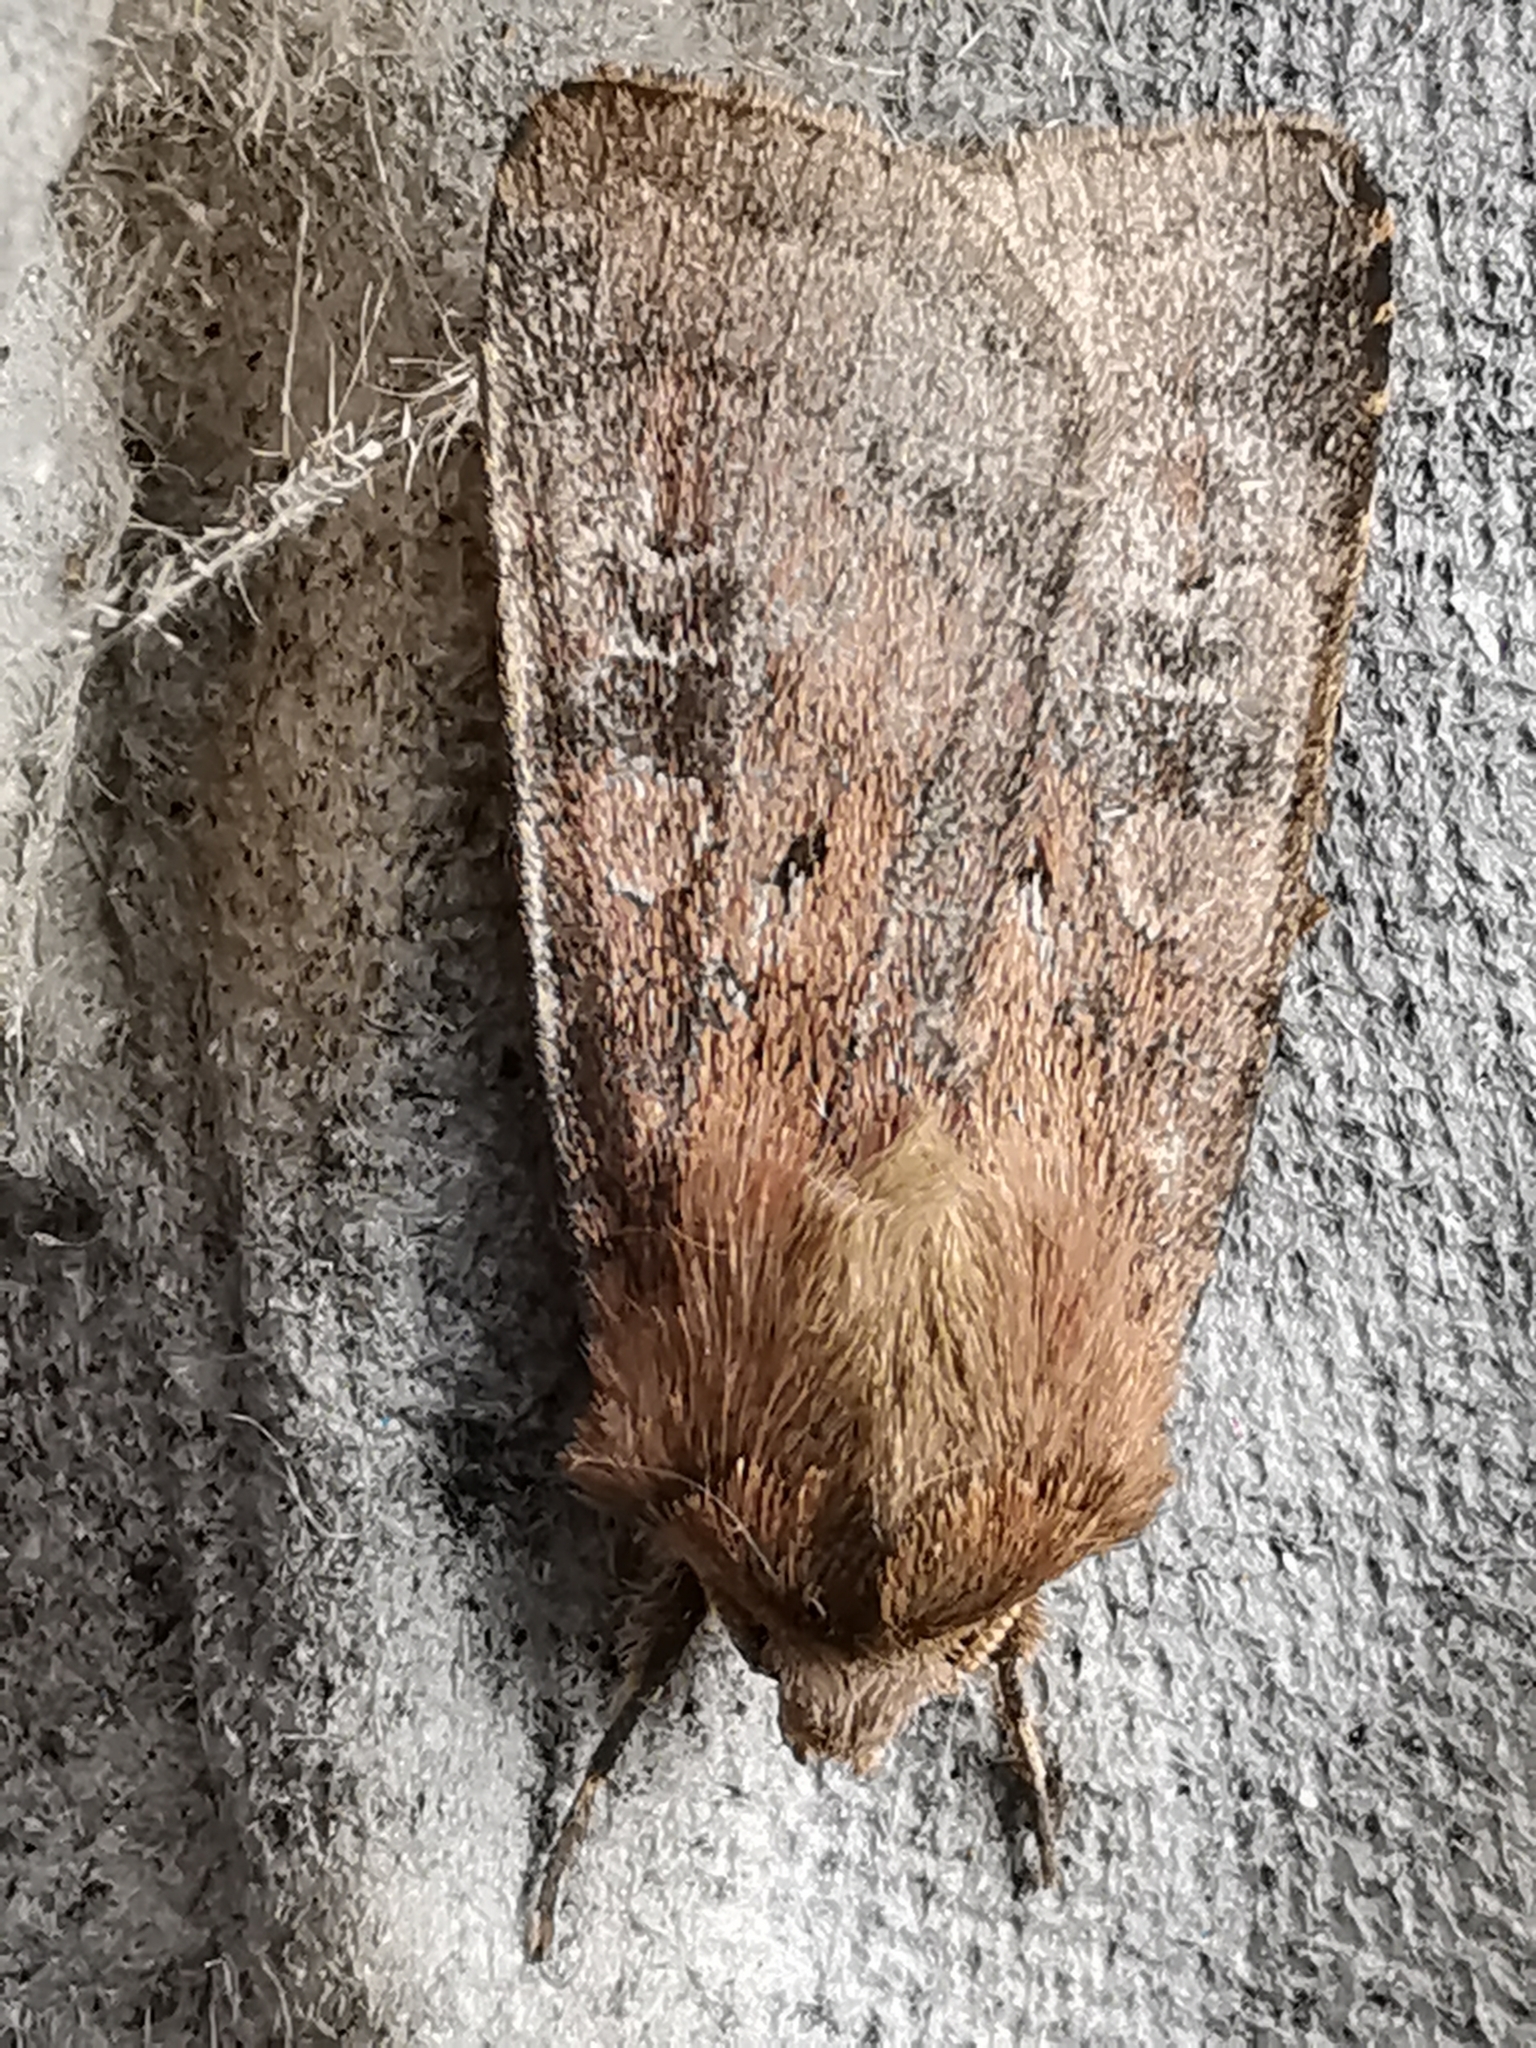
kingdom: Animalia
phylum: Arthropoda
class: Insecta
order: Lepidoptera
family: Noctuidae
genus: Diarsia
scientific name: Diarsia rubi
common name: Small square-spot
